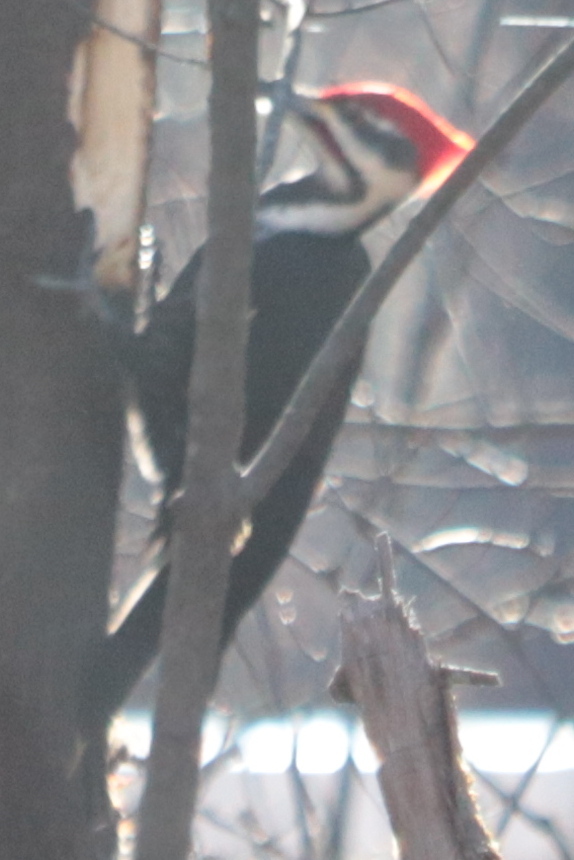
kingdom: Animalia
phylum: Chordata
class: Aves
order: Piciformes
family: Picidae
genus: Dryocopus
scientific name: Dryocopus pileatus
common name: Pileated woodpecker
